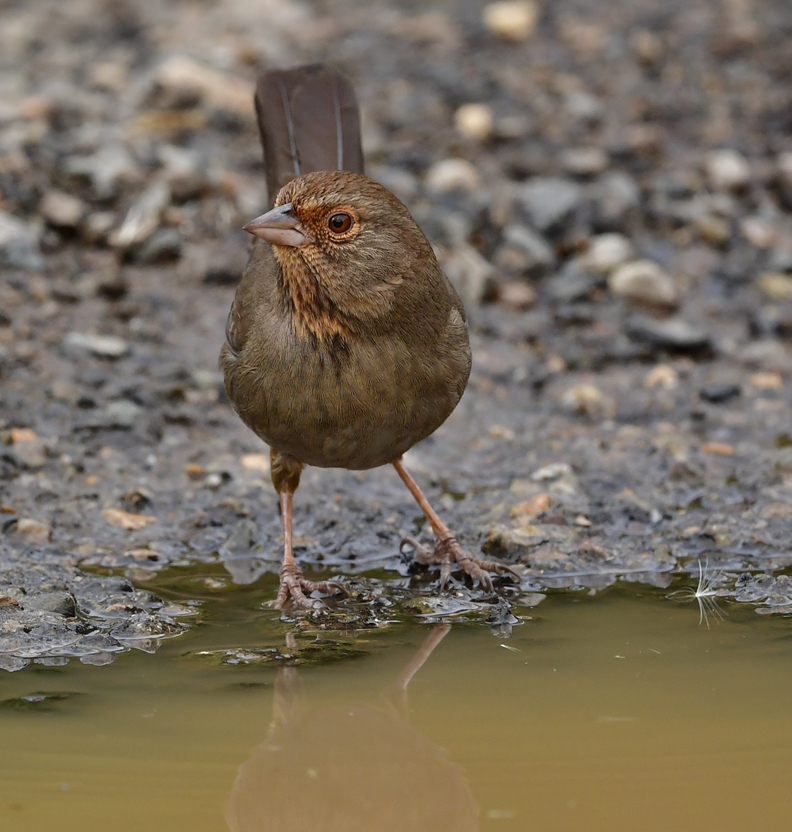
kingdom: Animalia
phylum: Chordata
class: Aves
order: Passeriformes
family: Passerellidae
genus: Melozone
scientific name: Melozone crissalis
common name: California towhee
